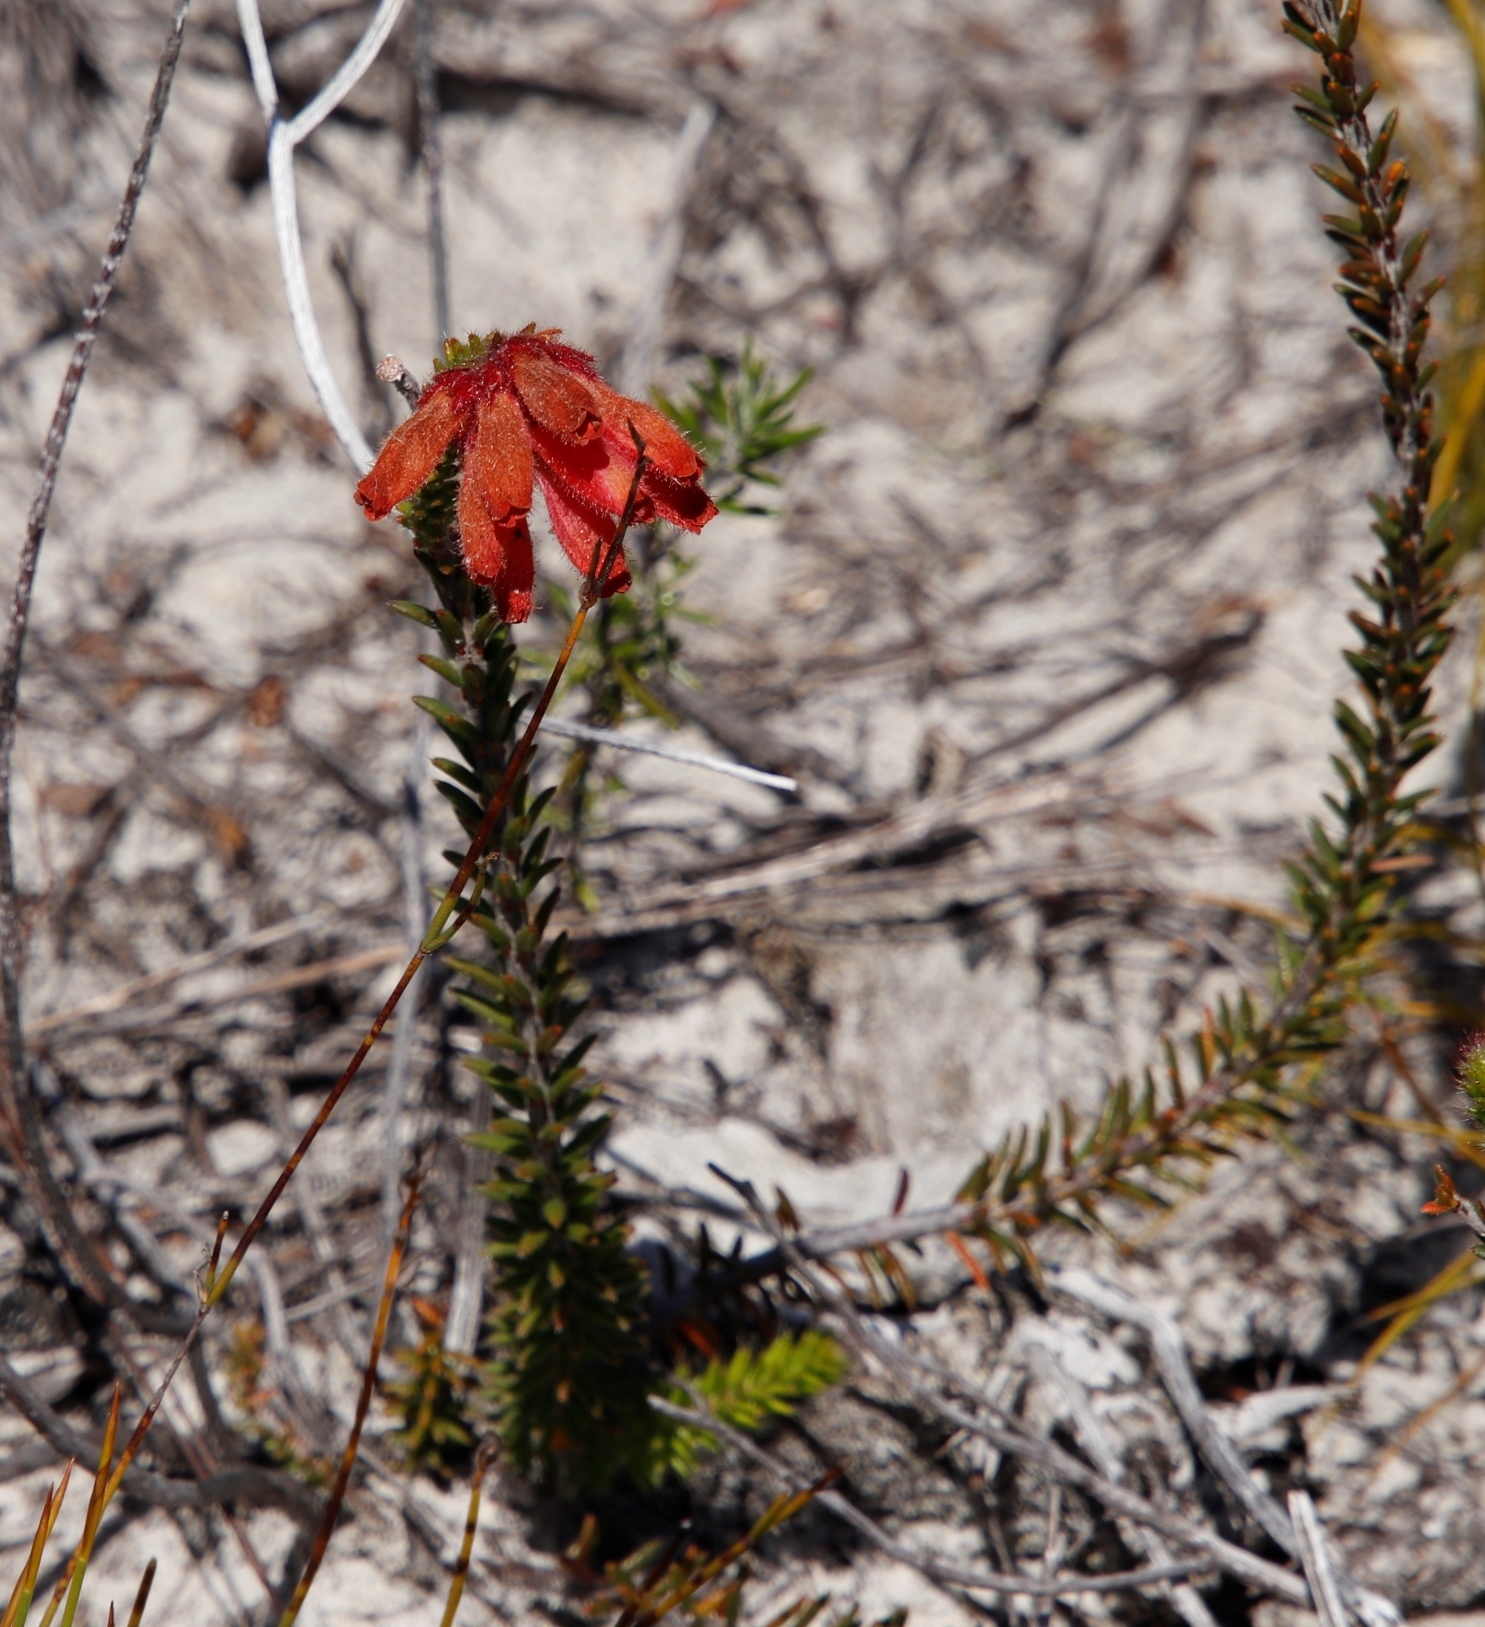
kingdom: Plantae
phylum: Tracheophyta
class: Magnoliopsida
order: Ericales
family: Ericaceae
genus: Erica
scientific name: Erica cerinthoides
